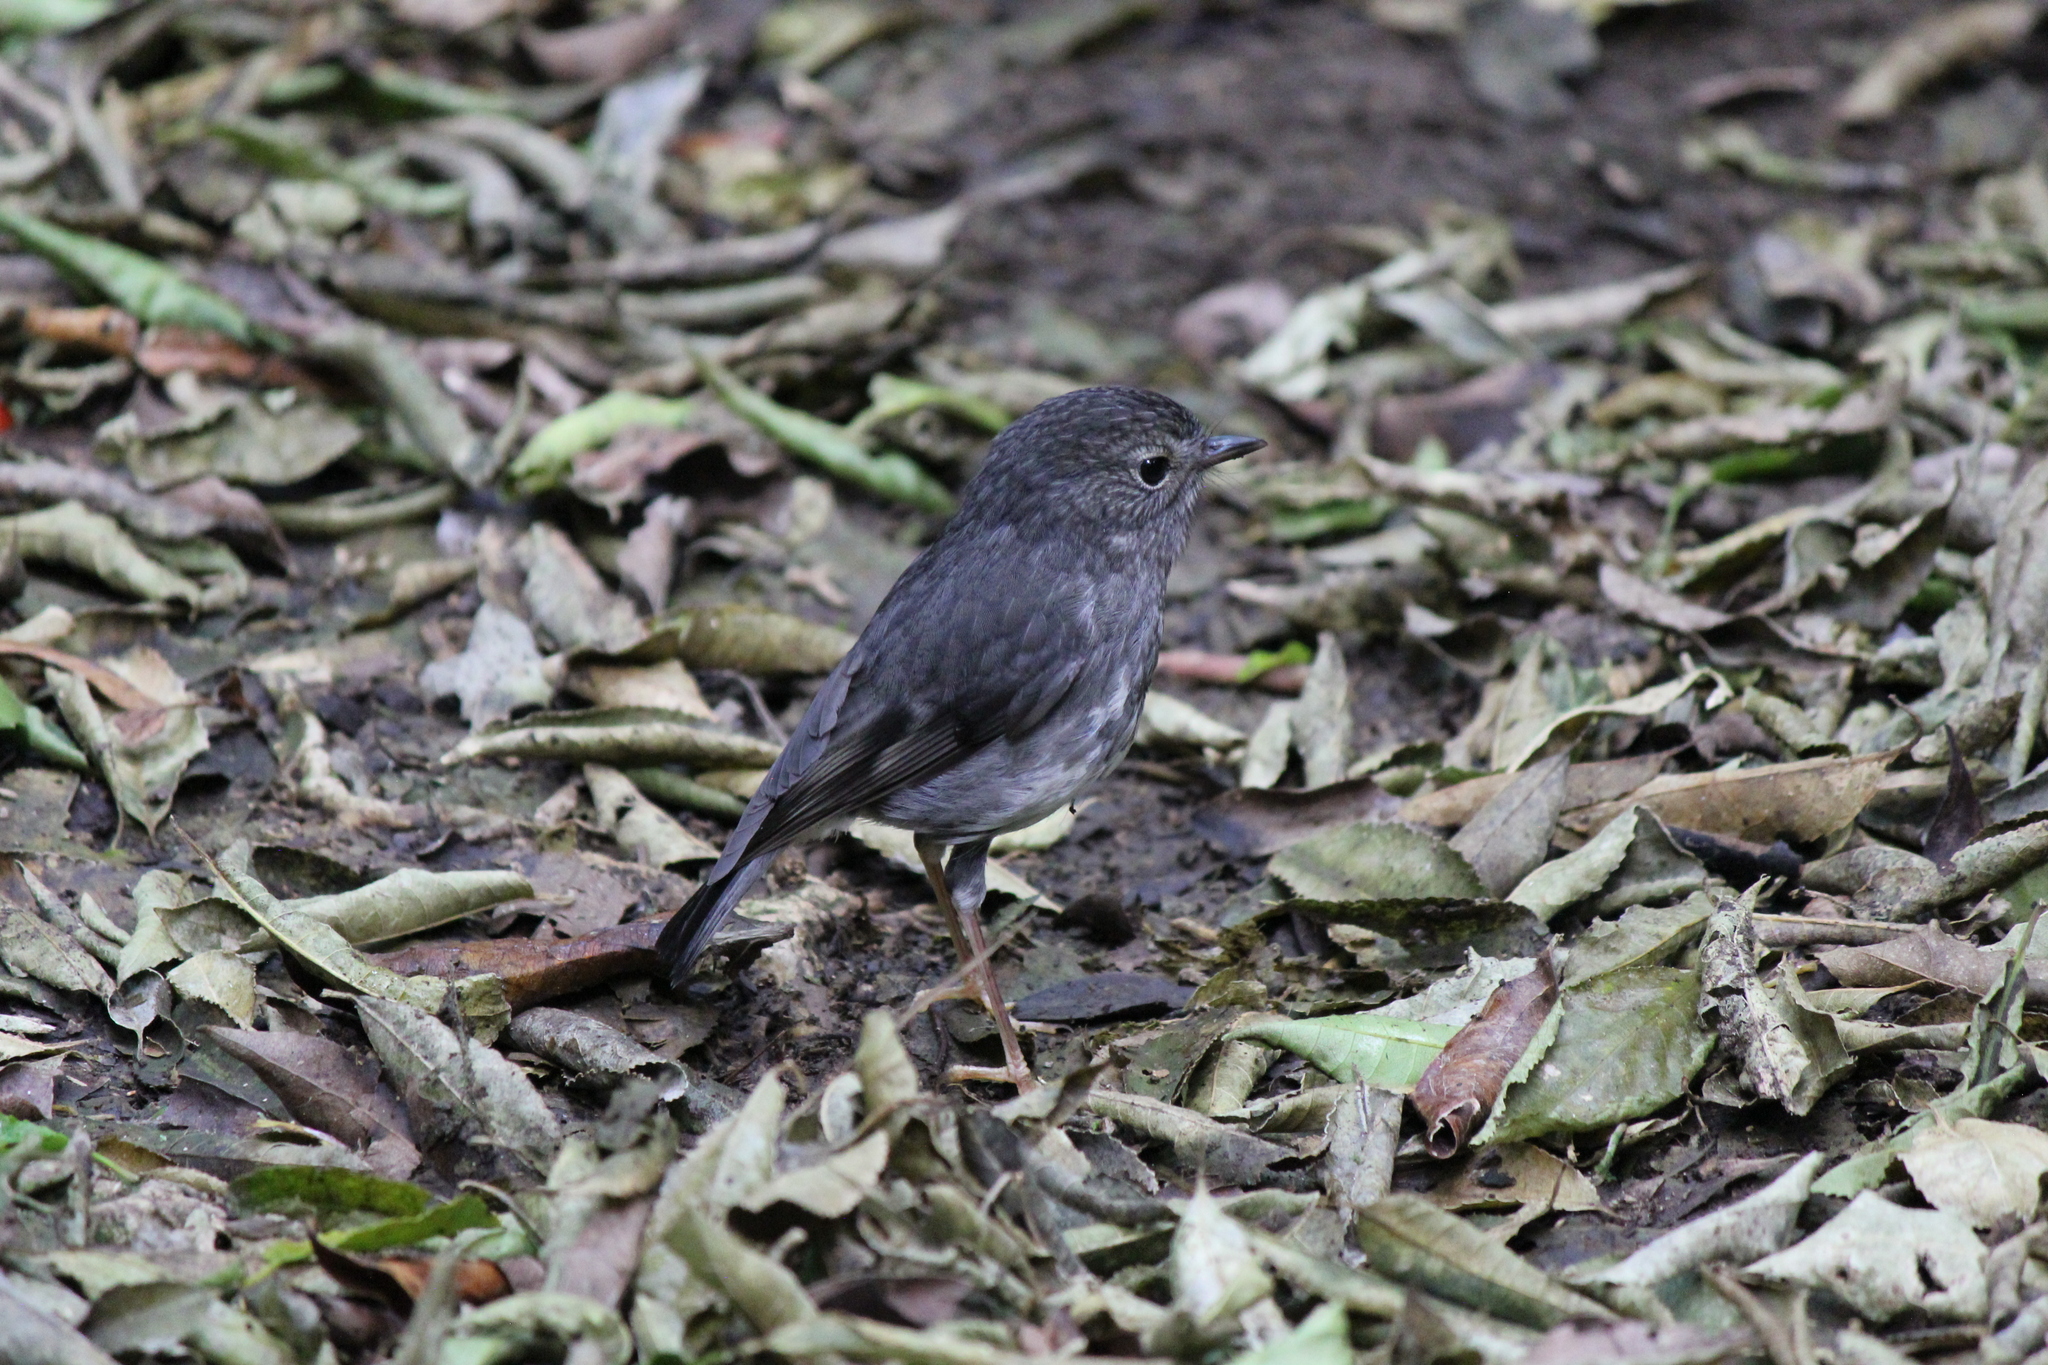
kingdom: Animalia
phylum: Chordata
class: Aves
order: Passeriformes
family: Petroicidae
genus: Petroica
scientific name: Petroica australis
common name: New zealand robin
